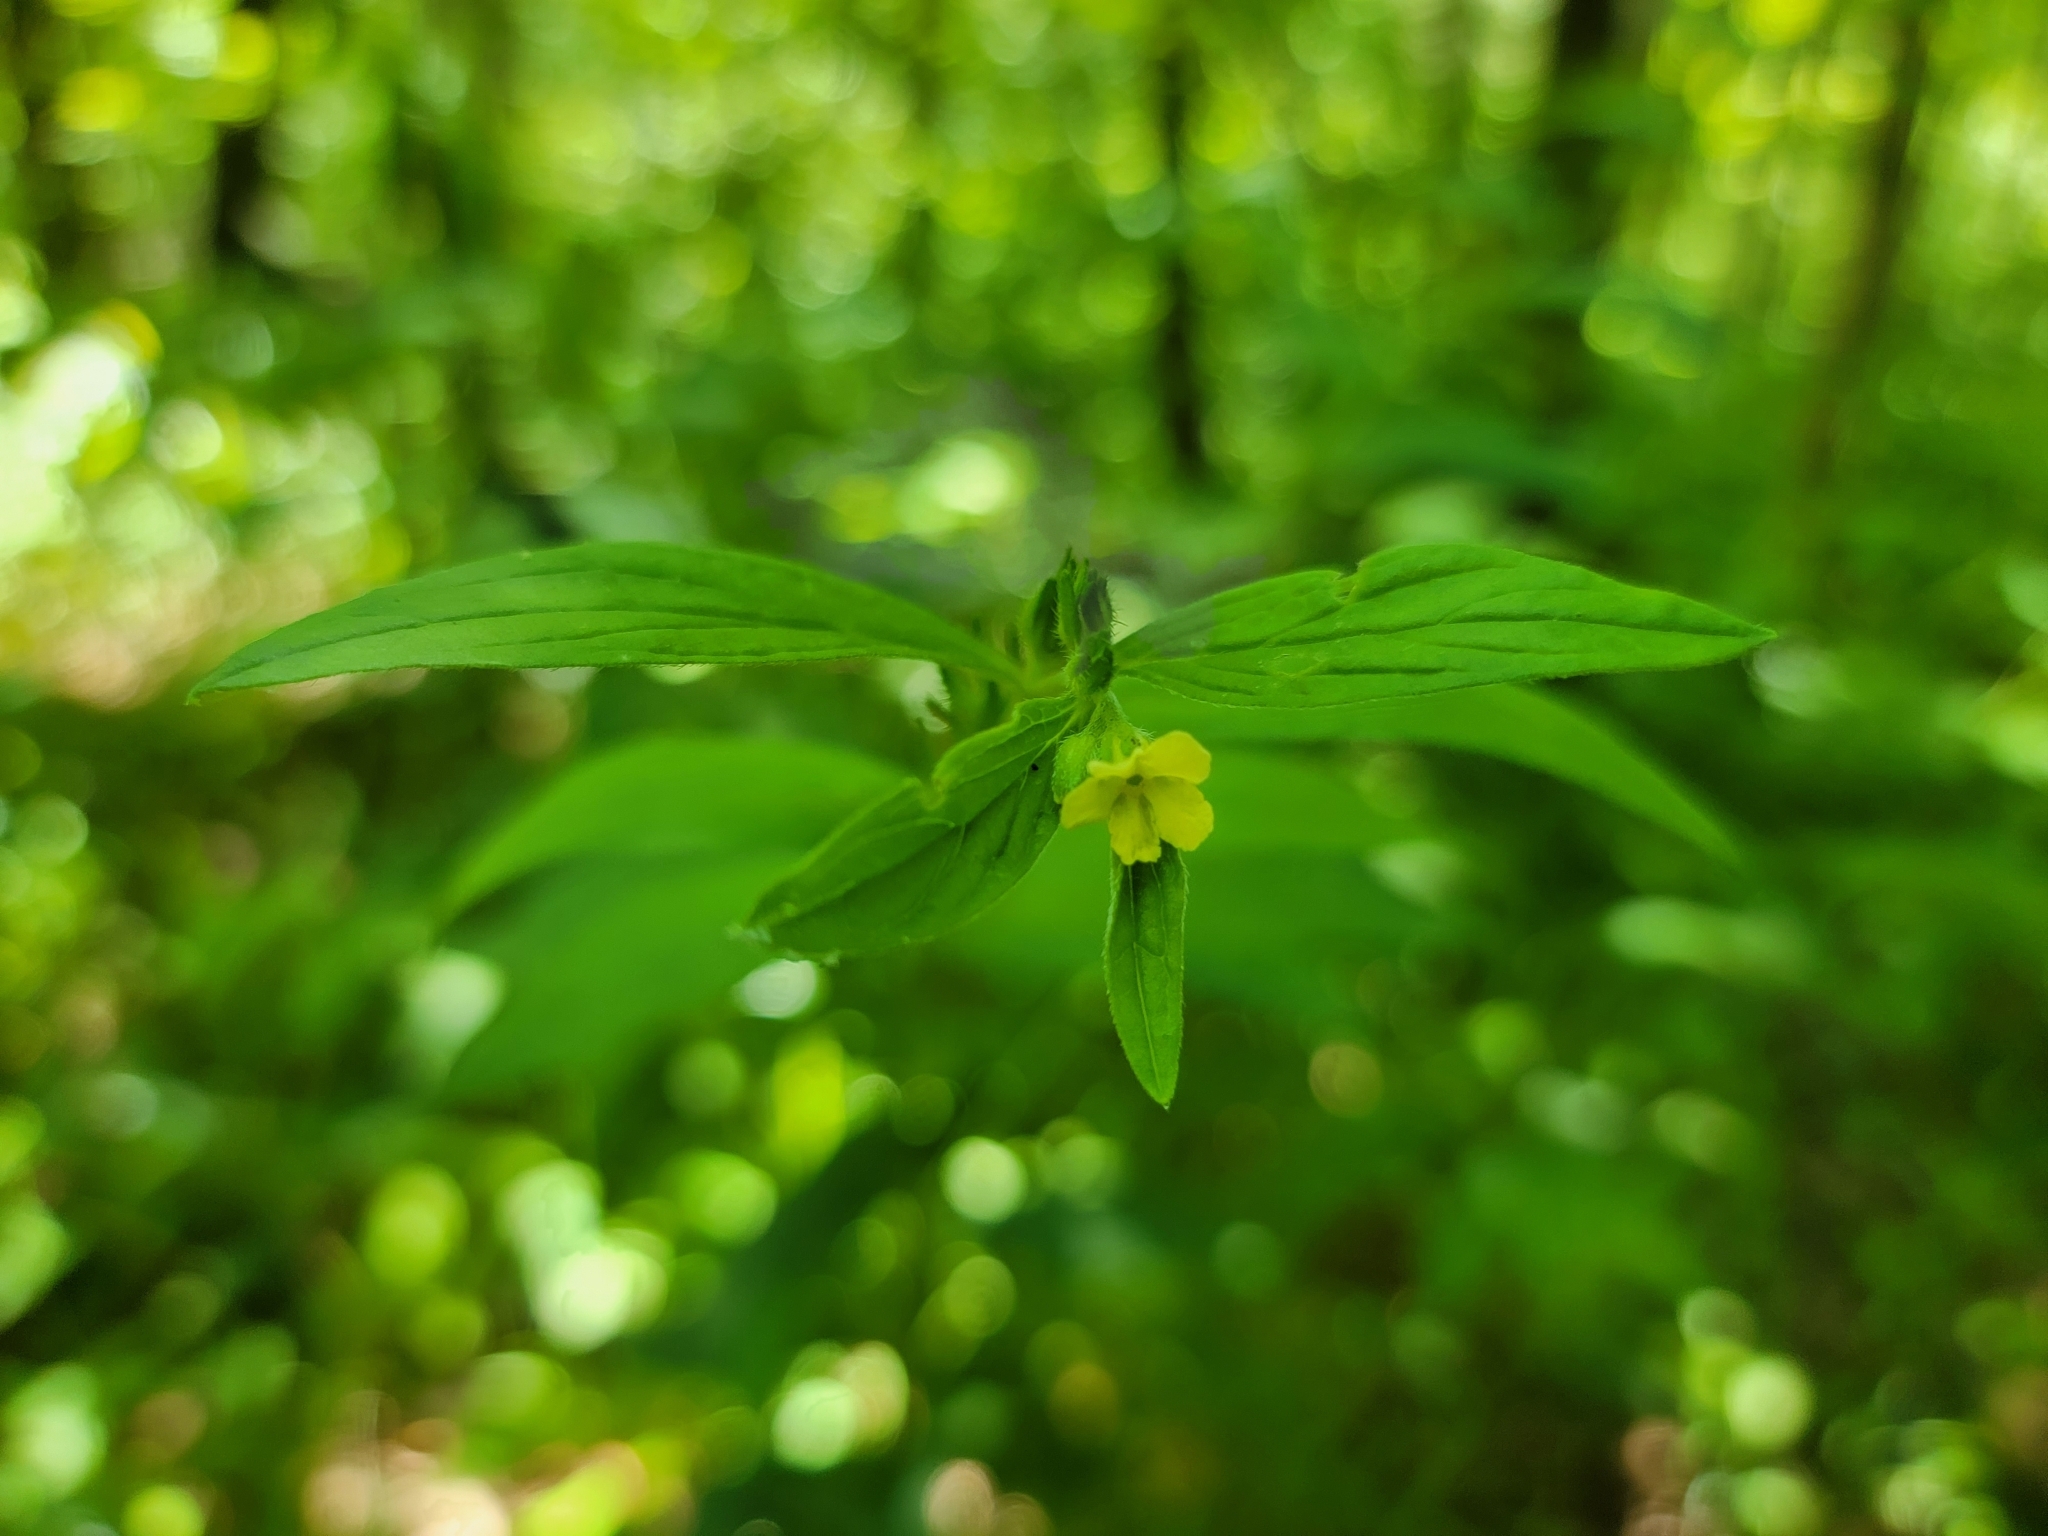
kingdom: Plantae
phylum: Tracheophyta
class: Magnoliopsida
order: Boraginales
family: Boraginaceae
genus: Lithospermum
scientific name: Lithospermum latifolium
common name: American gromwell
